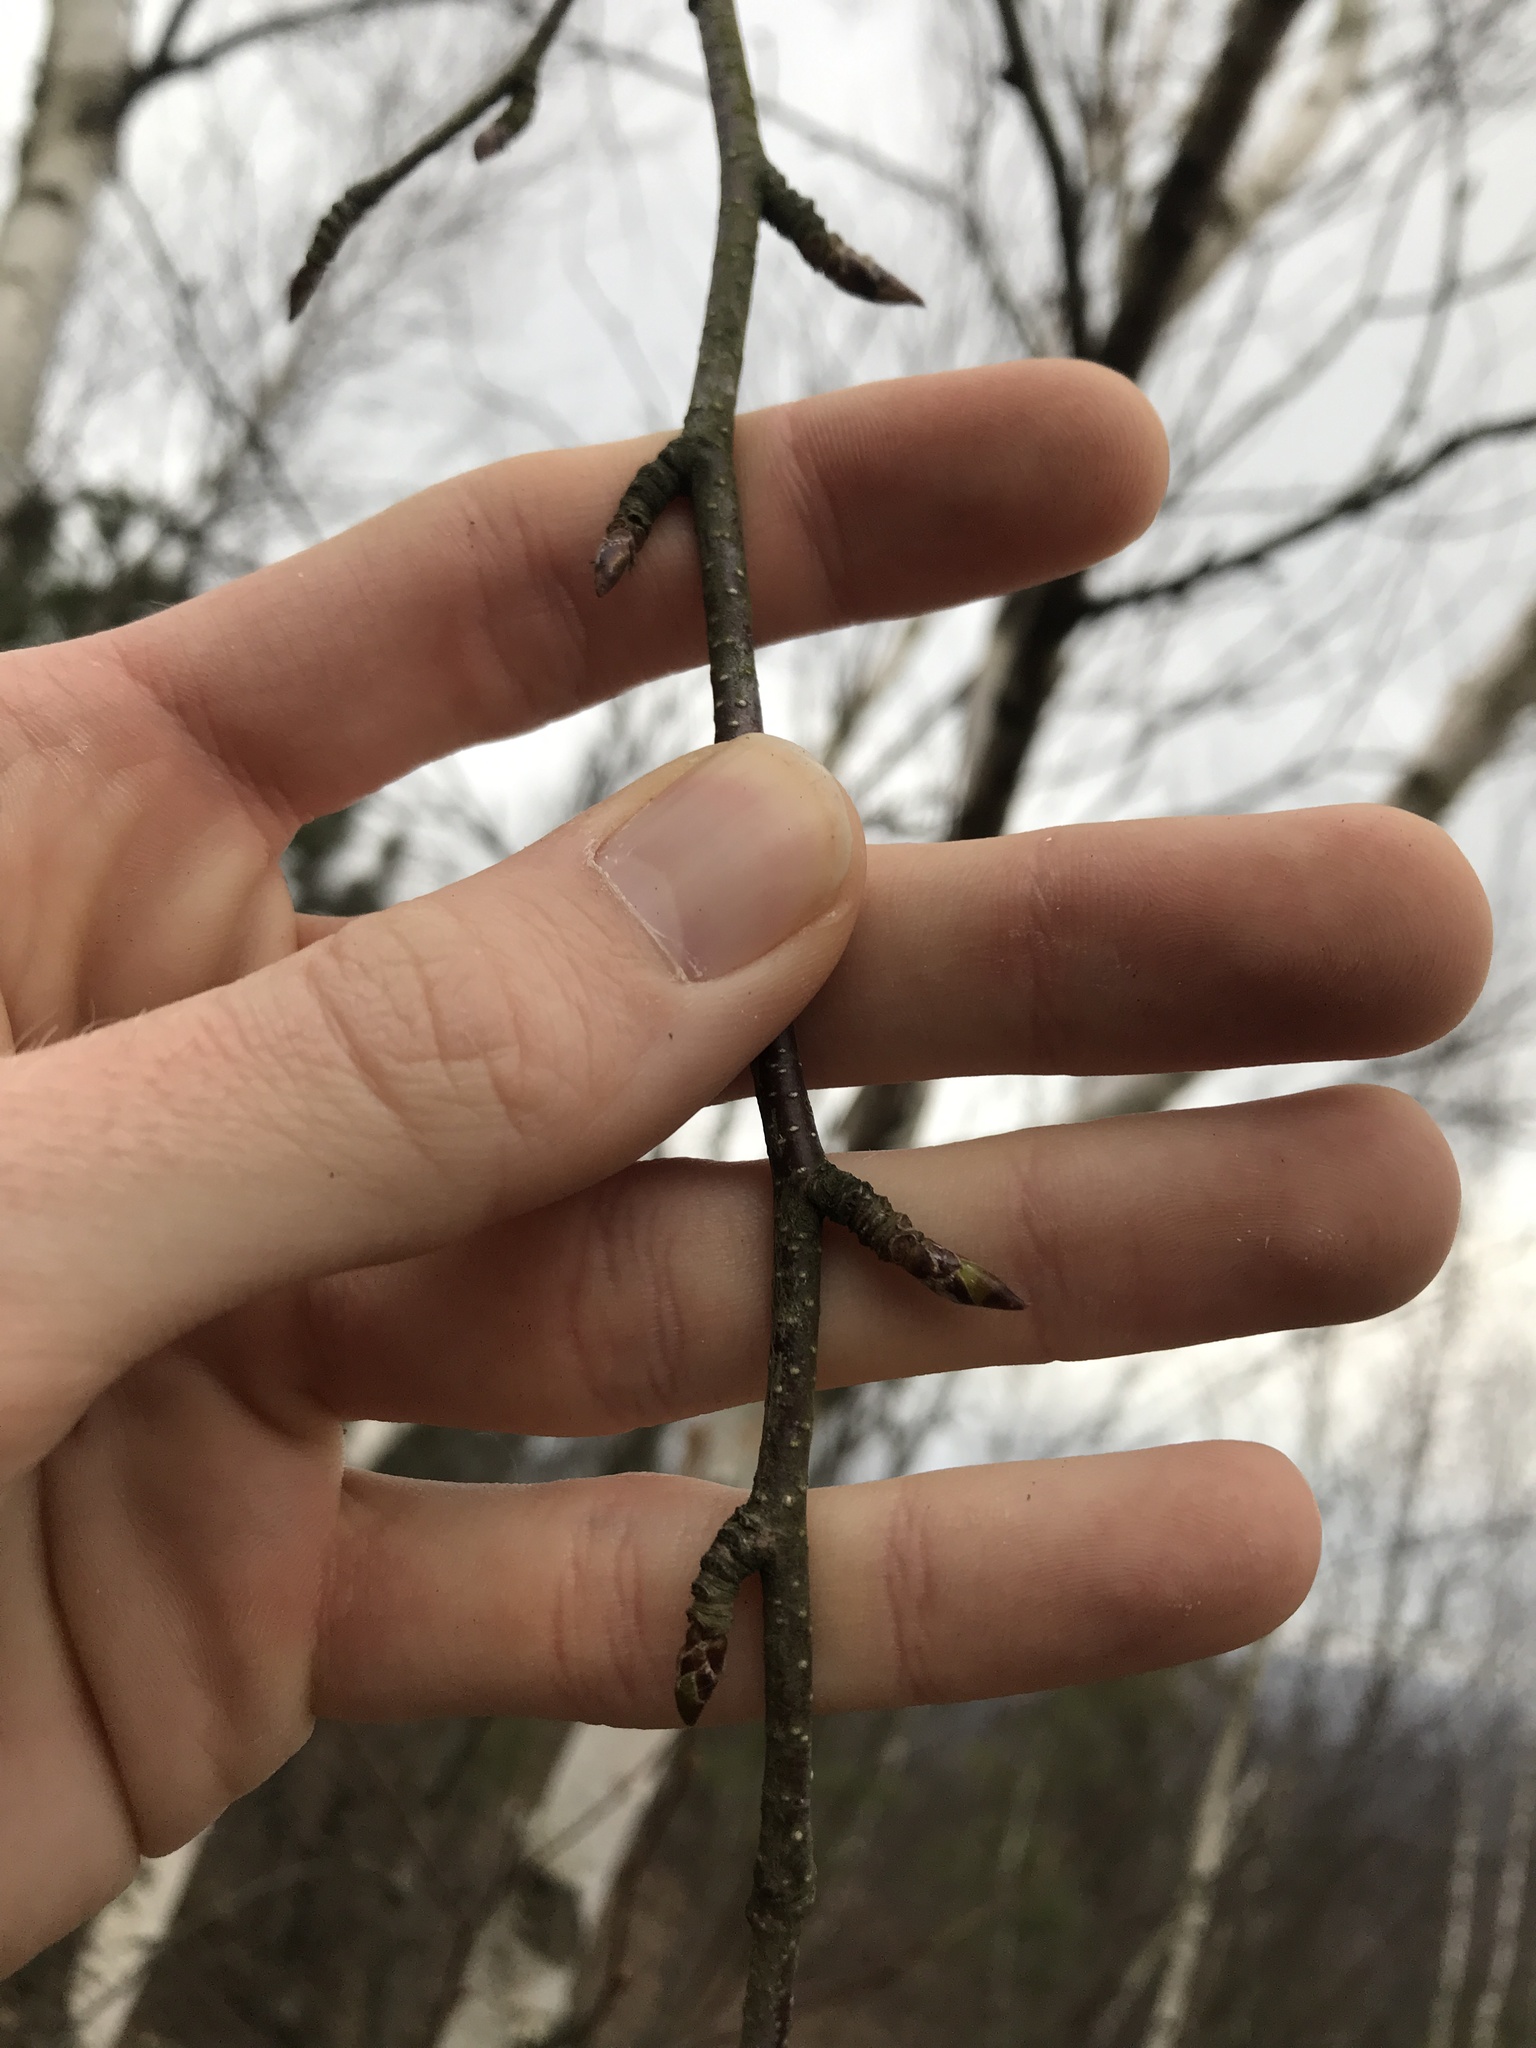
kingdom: Plantae
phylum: Tracheophyta
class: Magnoliopsida
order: Fagales
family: Betulaceae
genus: Betula
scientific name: Betula papyrifera
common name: Paper birch
